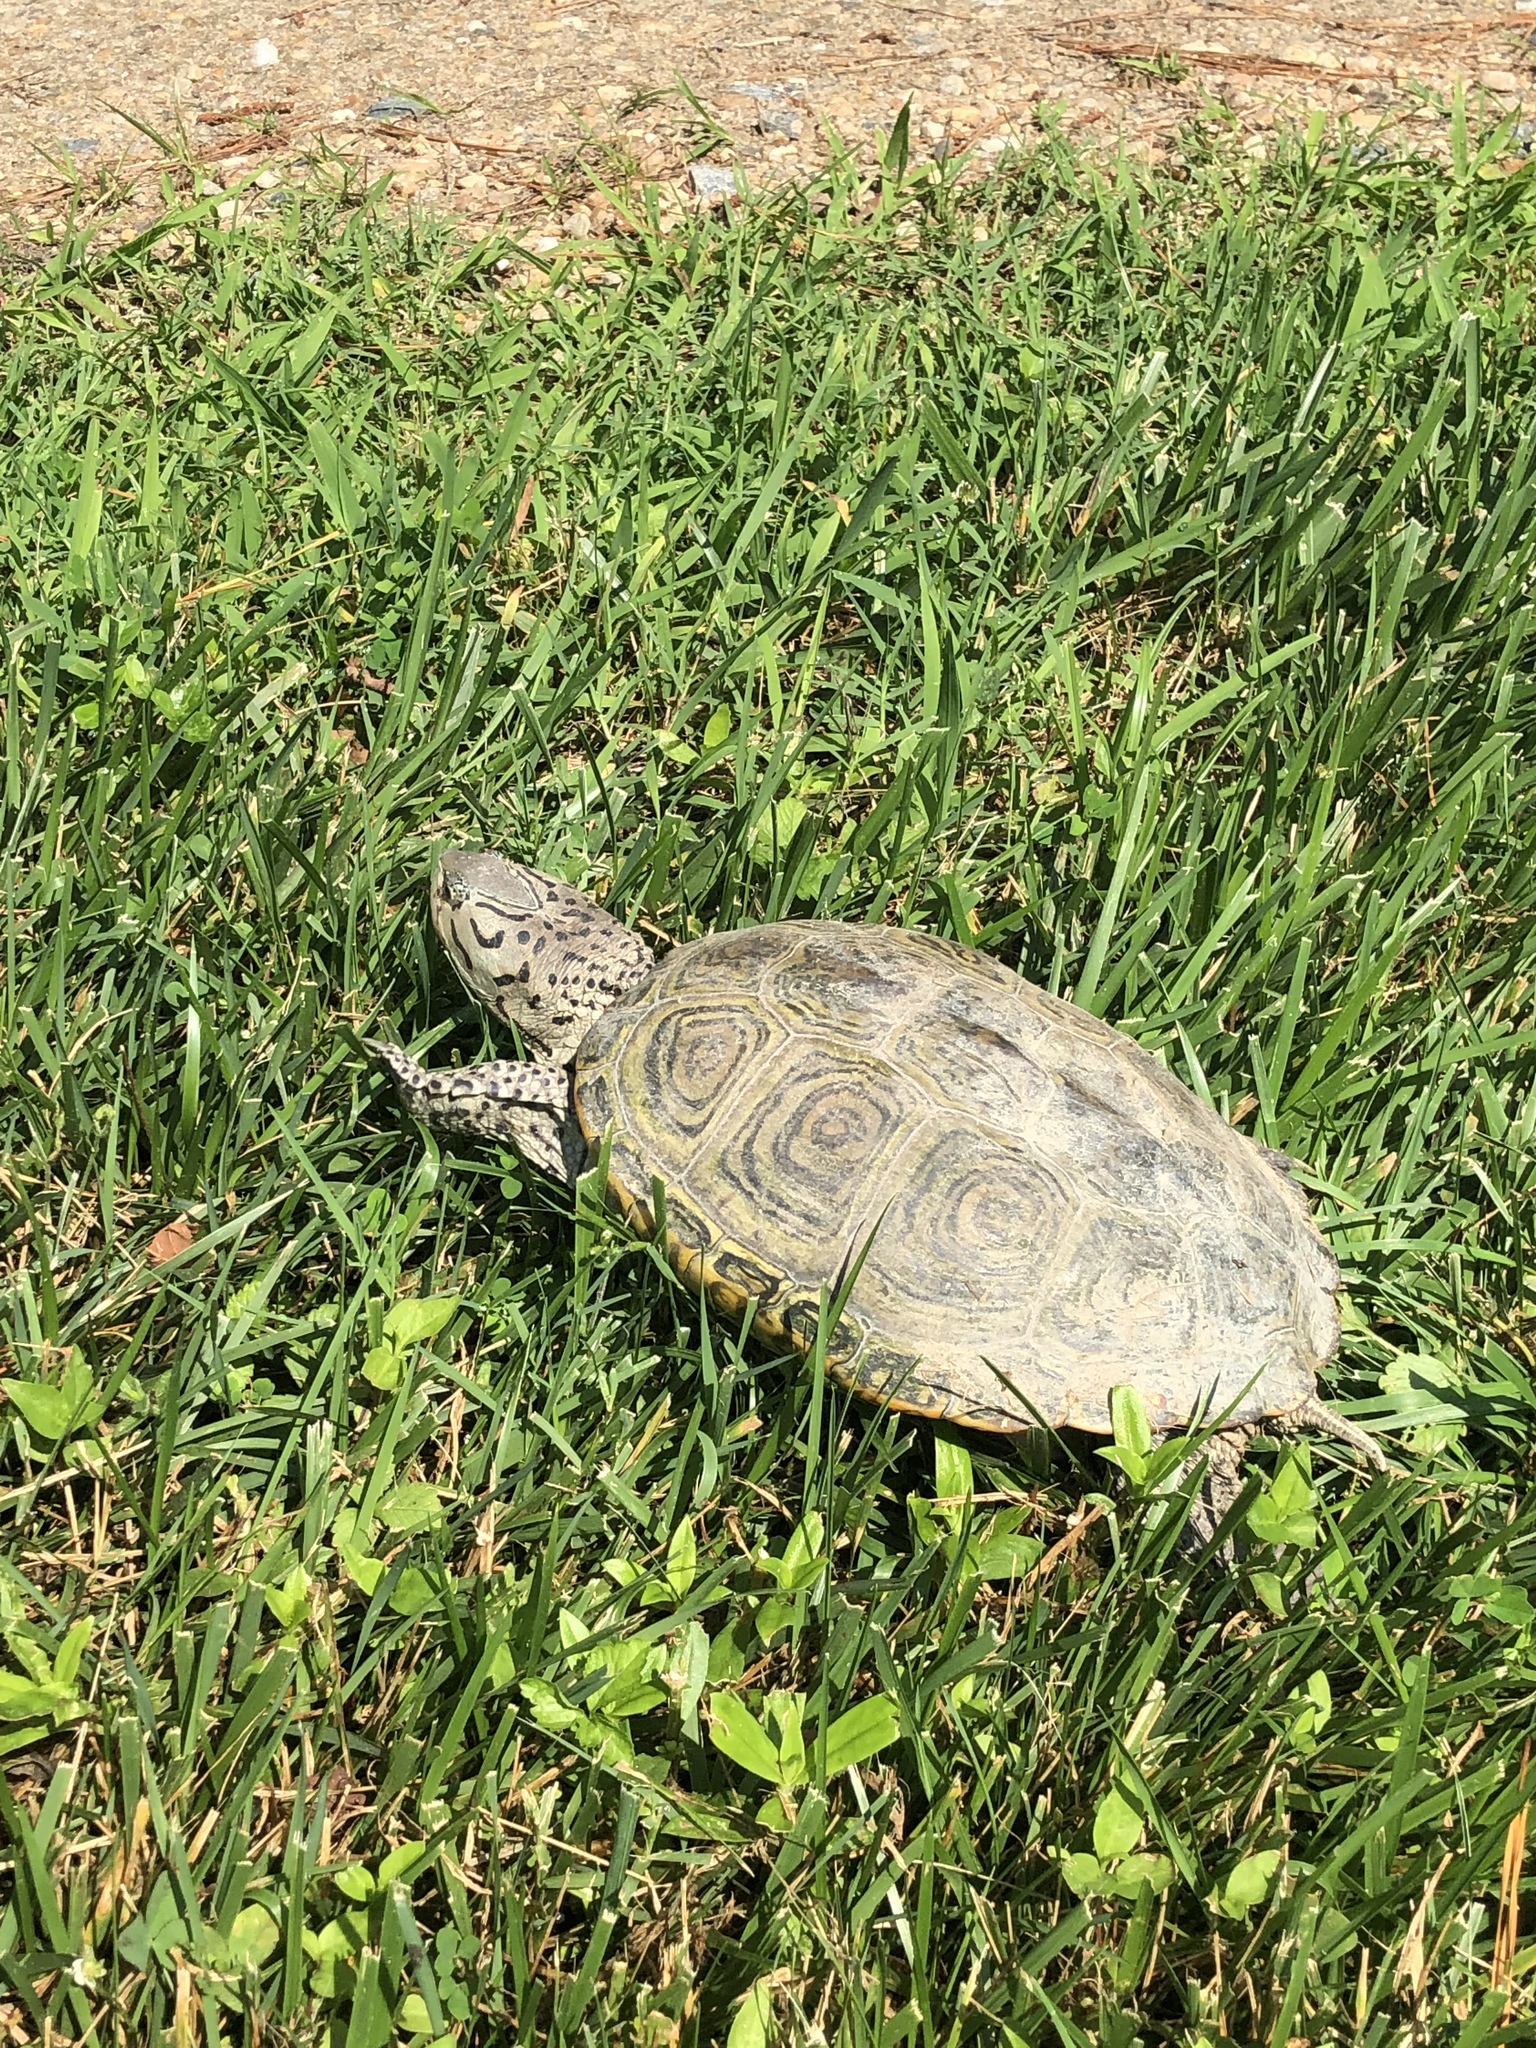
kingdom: Animalia
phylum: Chordata
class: Testudines
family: Emydidae
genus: Malaclemys
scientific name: Malaclemys terrapin
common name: Diamondback terrapin
